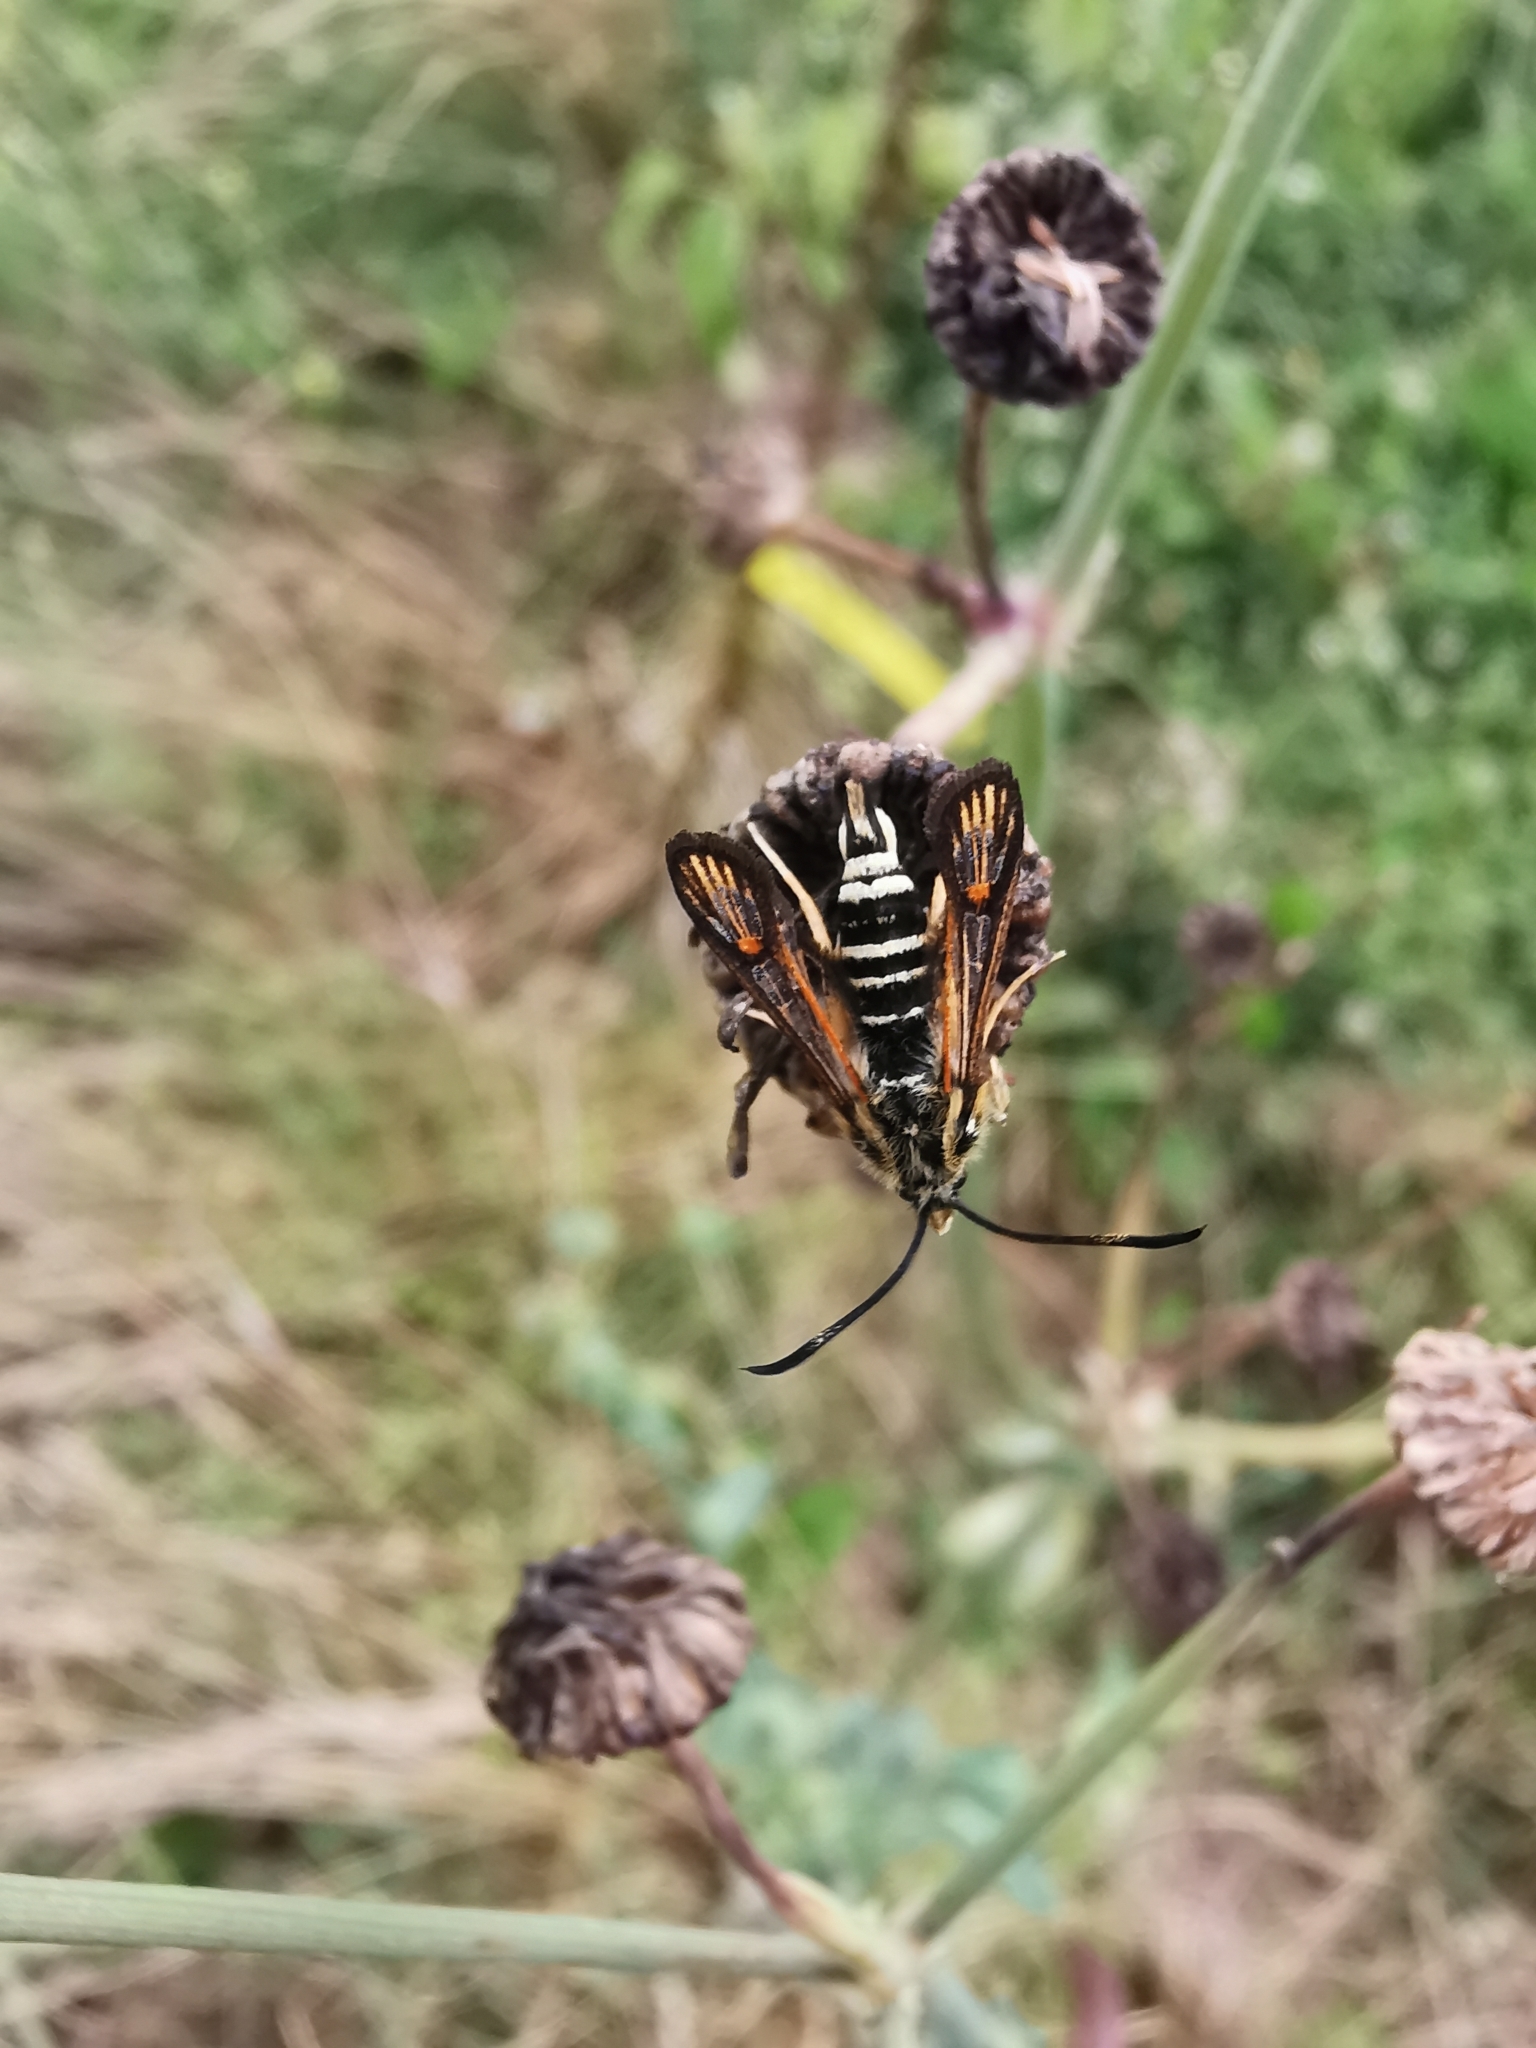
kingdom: Animalia
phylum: Arthropoda
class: Insecta
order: Lepidoptera
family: Sesiidae
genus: Bembecia
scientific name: Bembecia ichneumoniformis
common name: Six-belted clearwing
